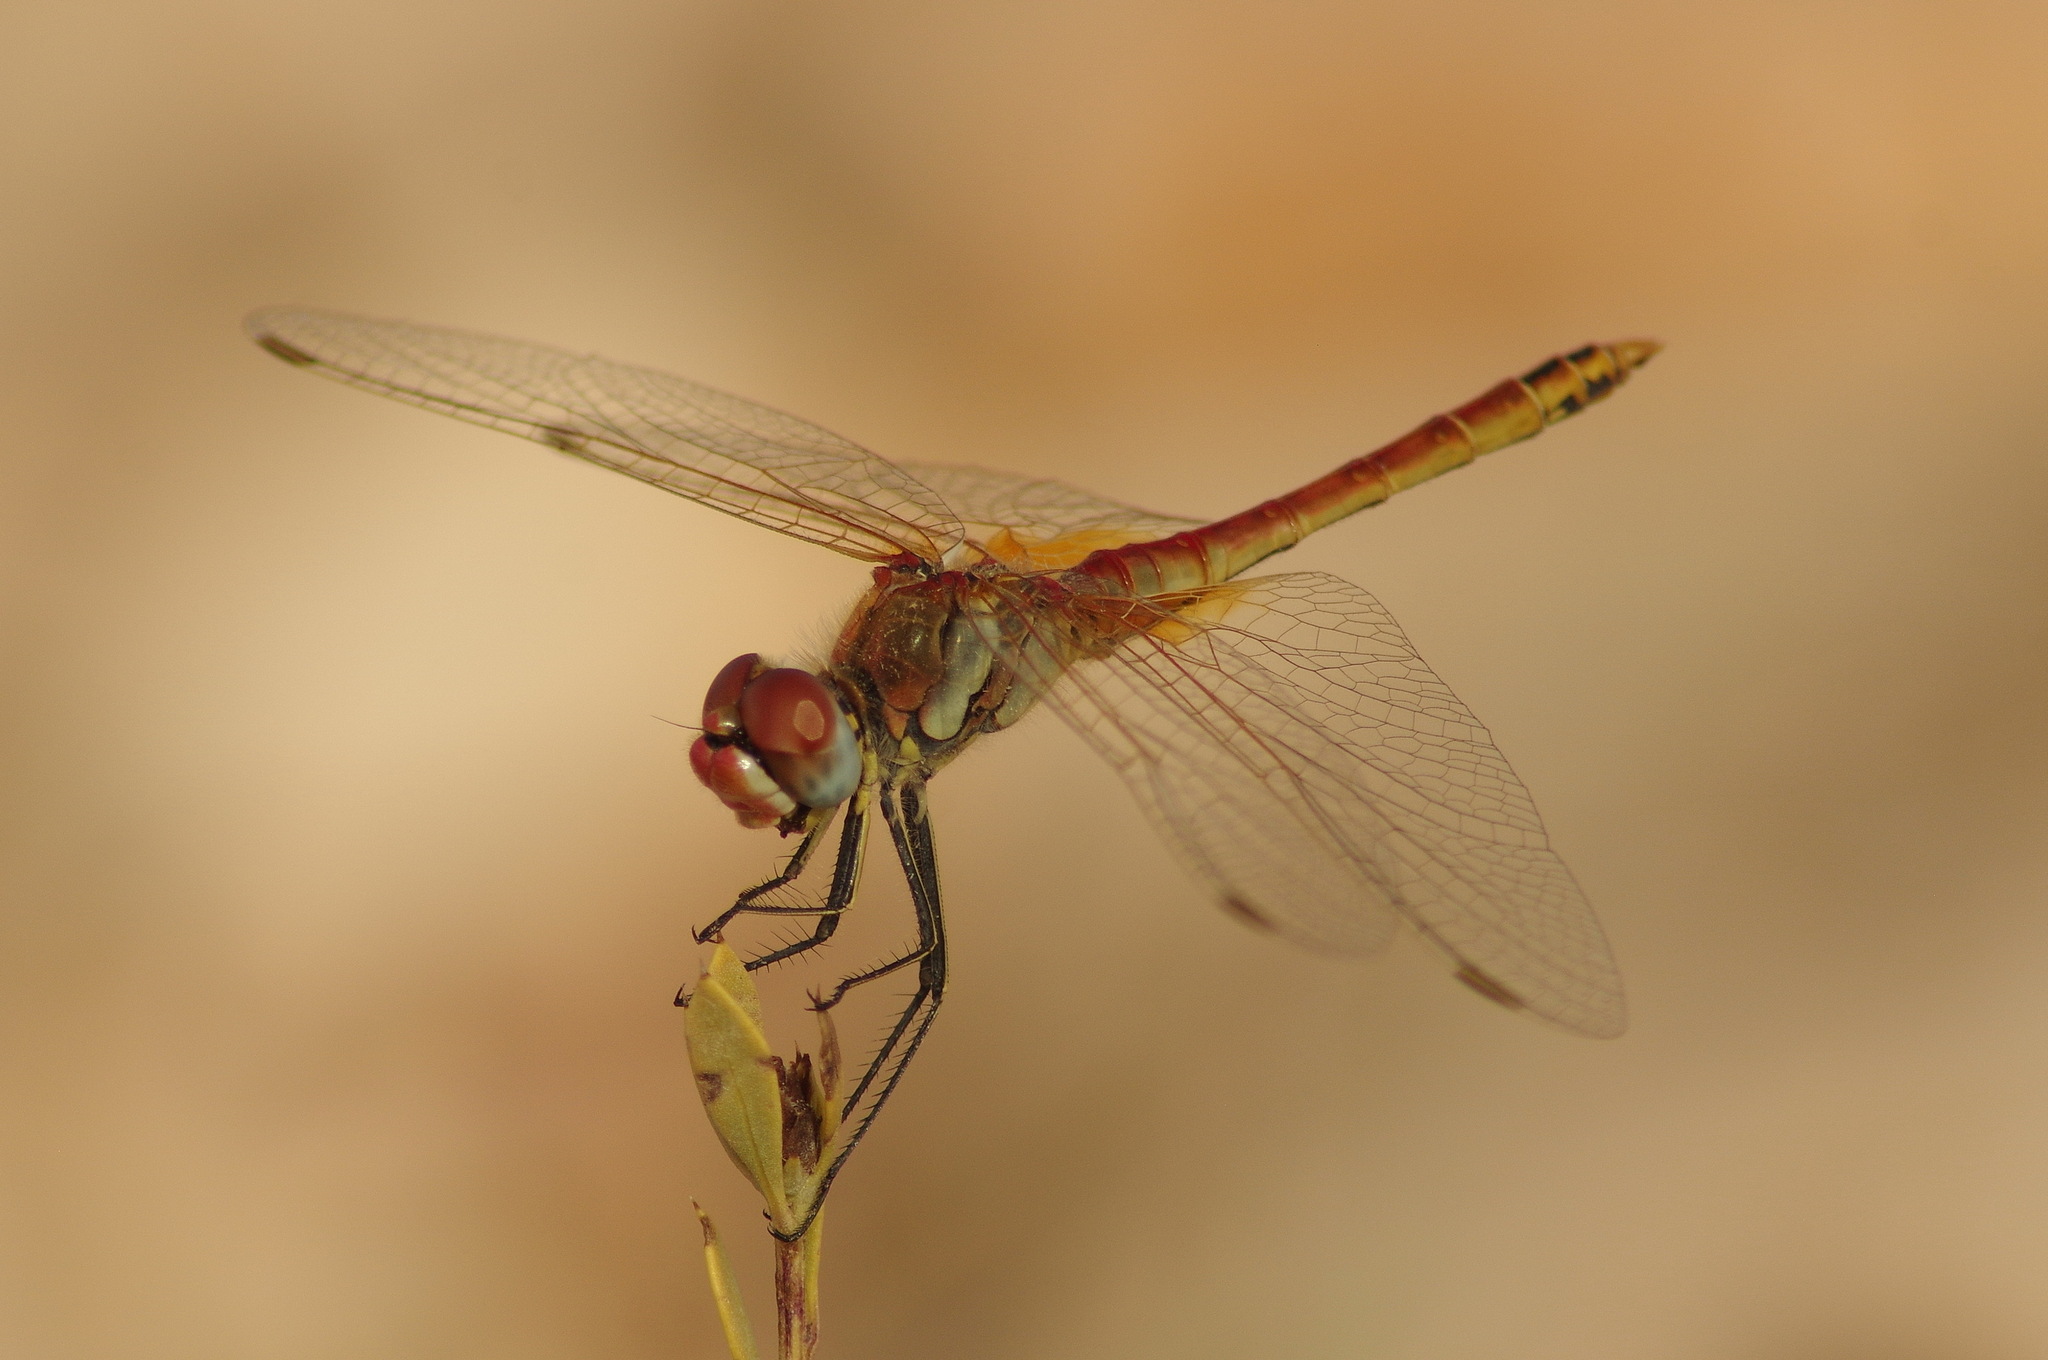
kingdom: Animalia
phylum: Arthropoda
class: Insecta
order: Odonata
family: Libellulidae
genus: Sympetrum
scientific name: Sympetrum fonscolombii
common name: Red-veined darter
